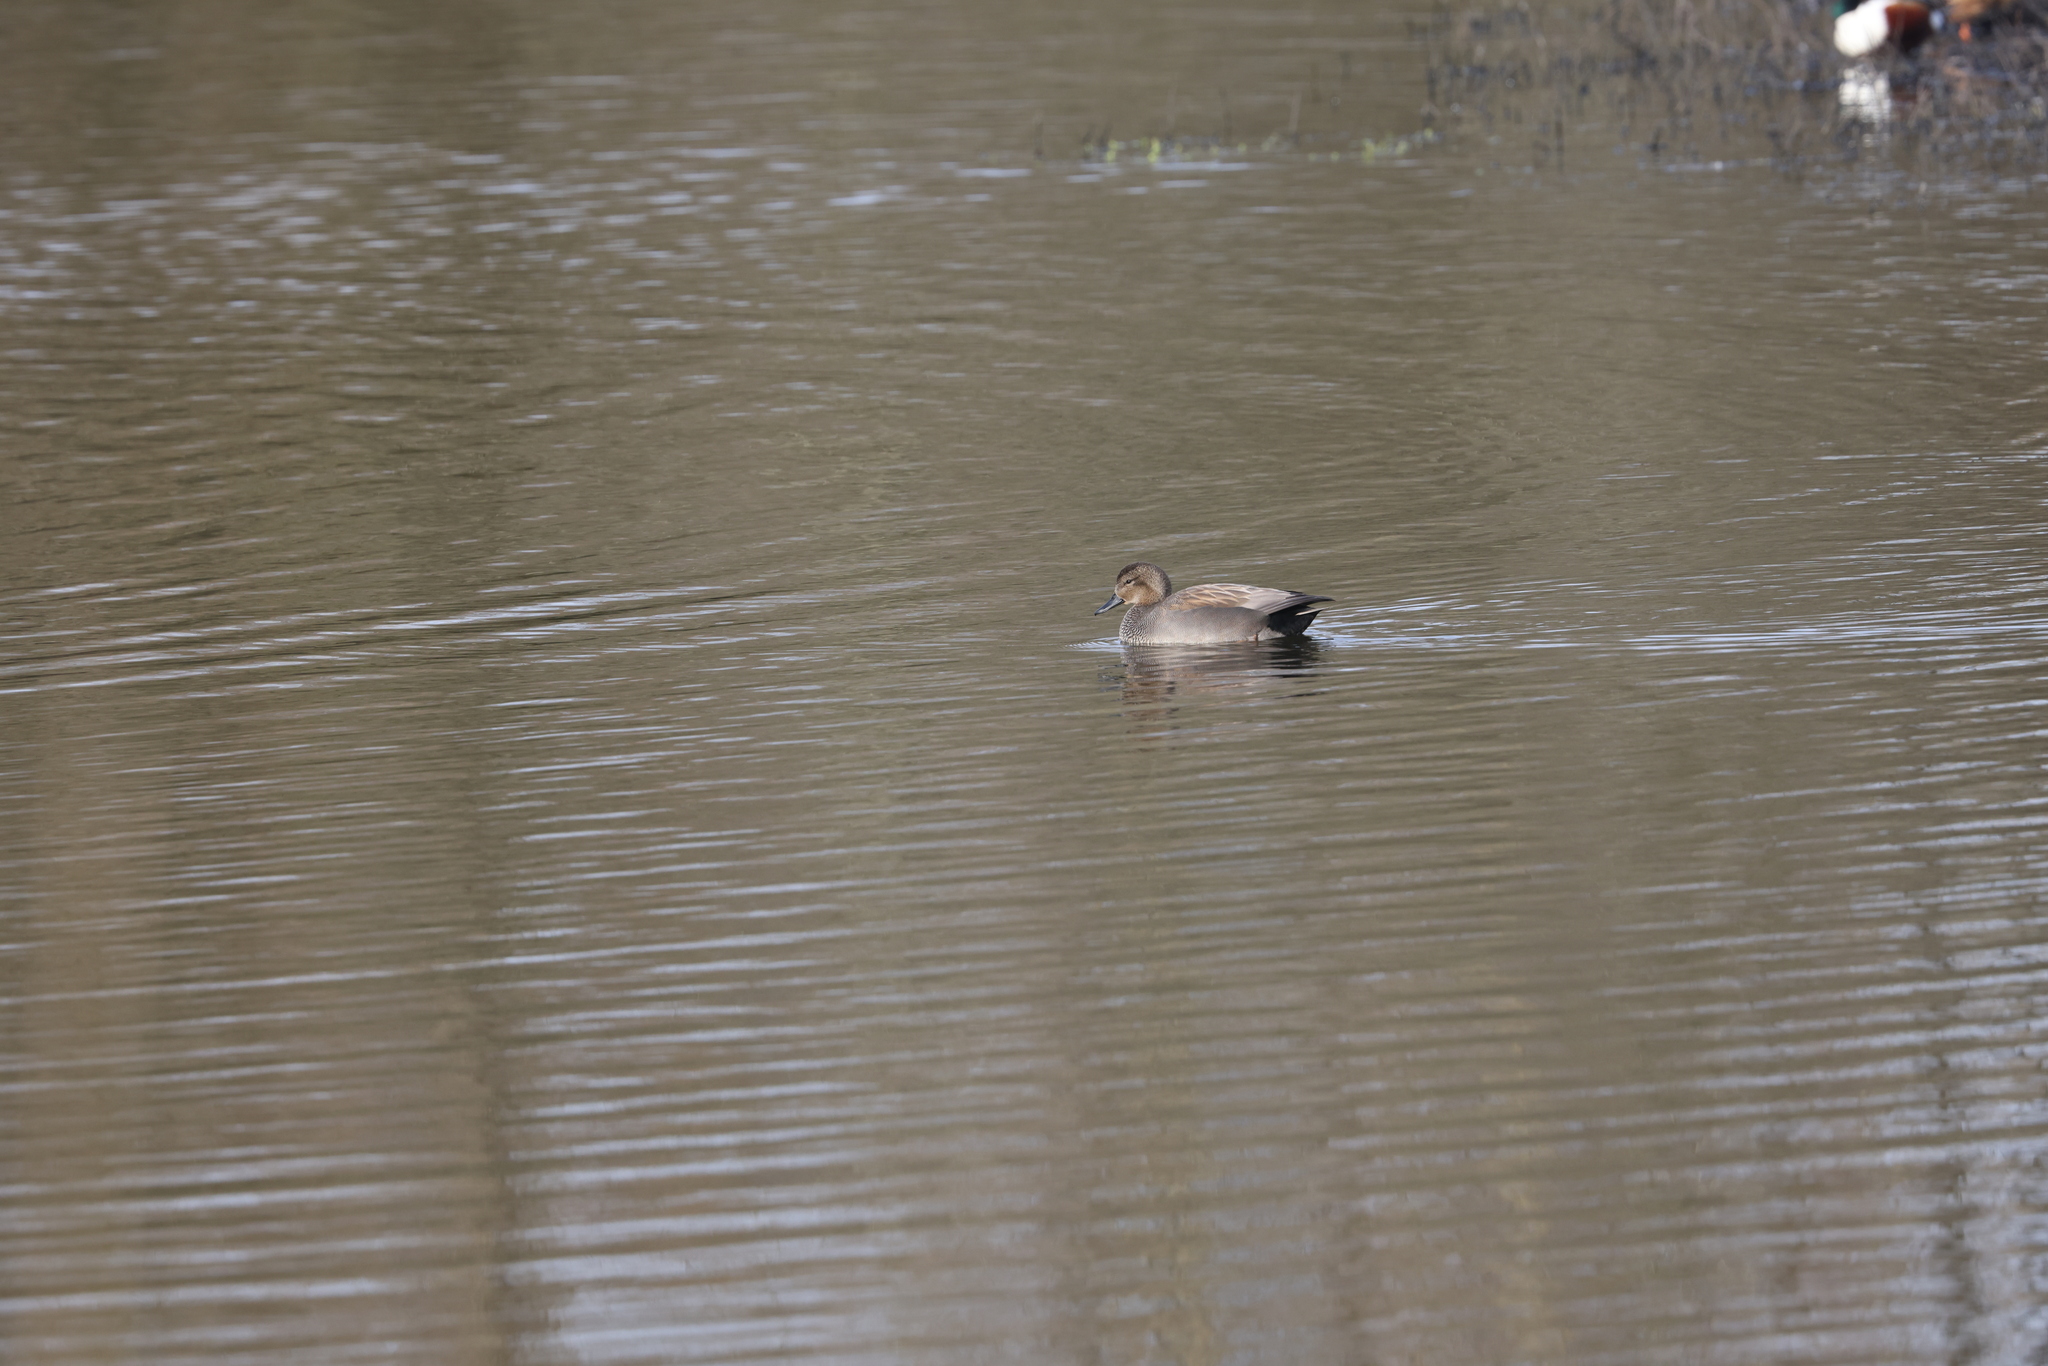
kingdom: Animalia
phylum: Chordata
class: Aves
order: Anseriformes
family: Anatidae
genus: Mareca
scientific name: Mareca strepera
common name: Gadwall
